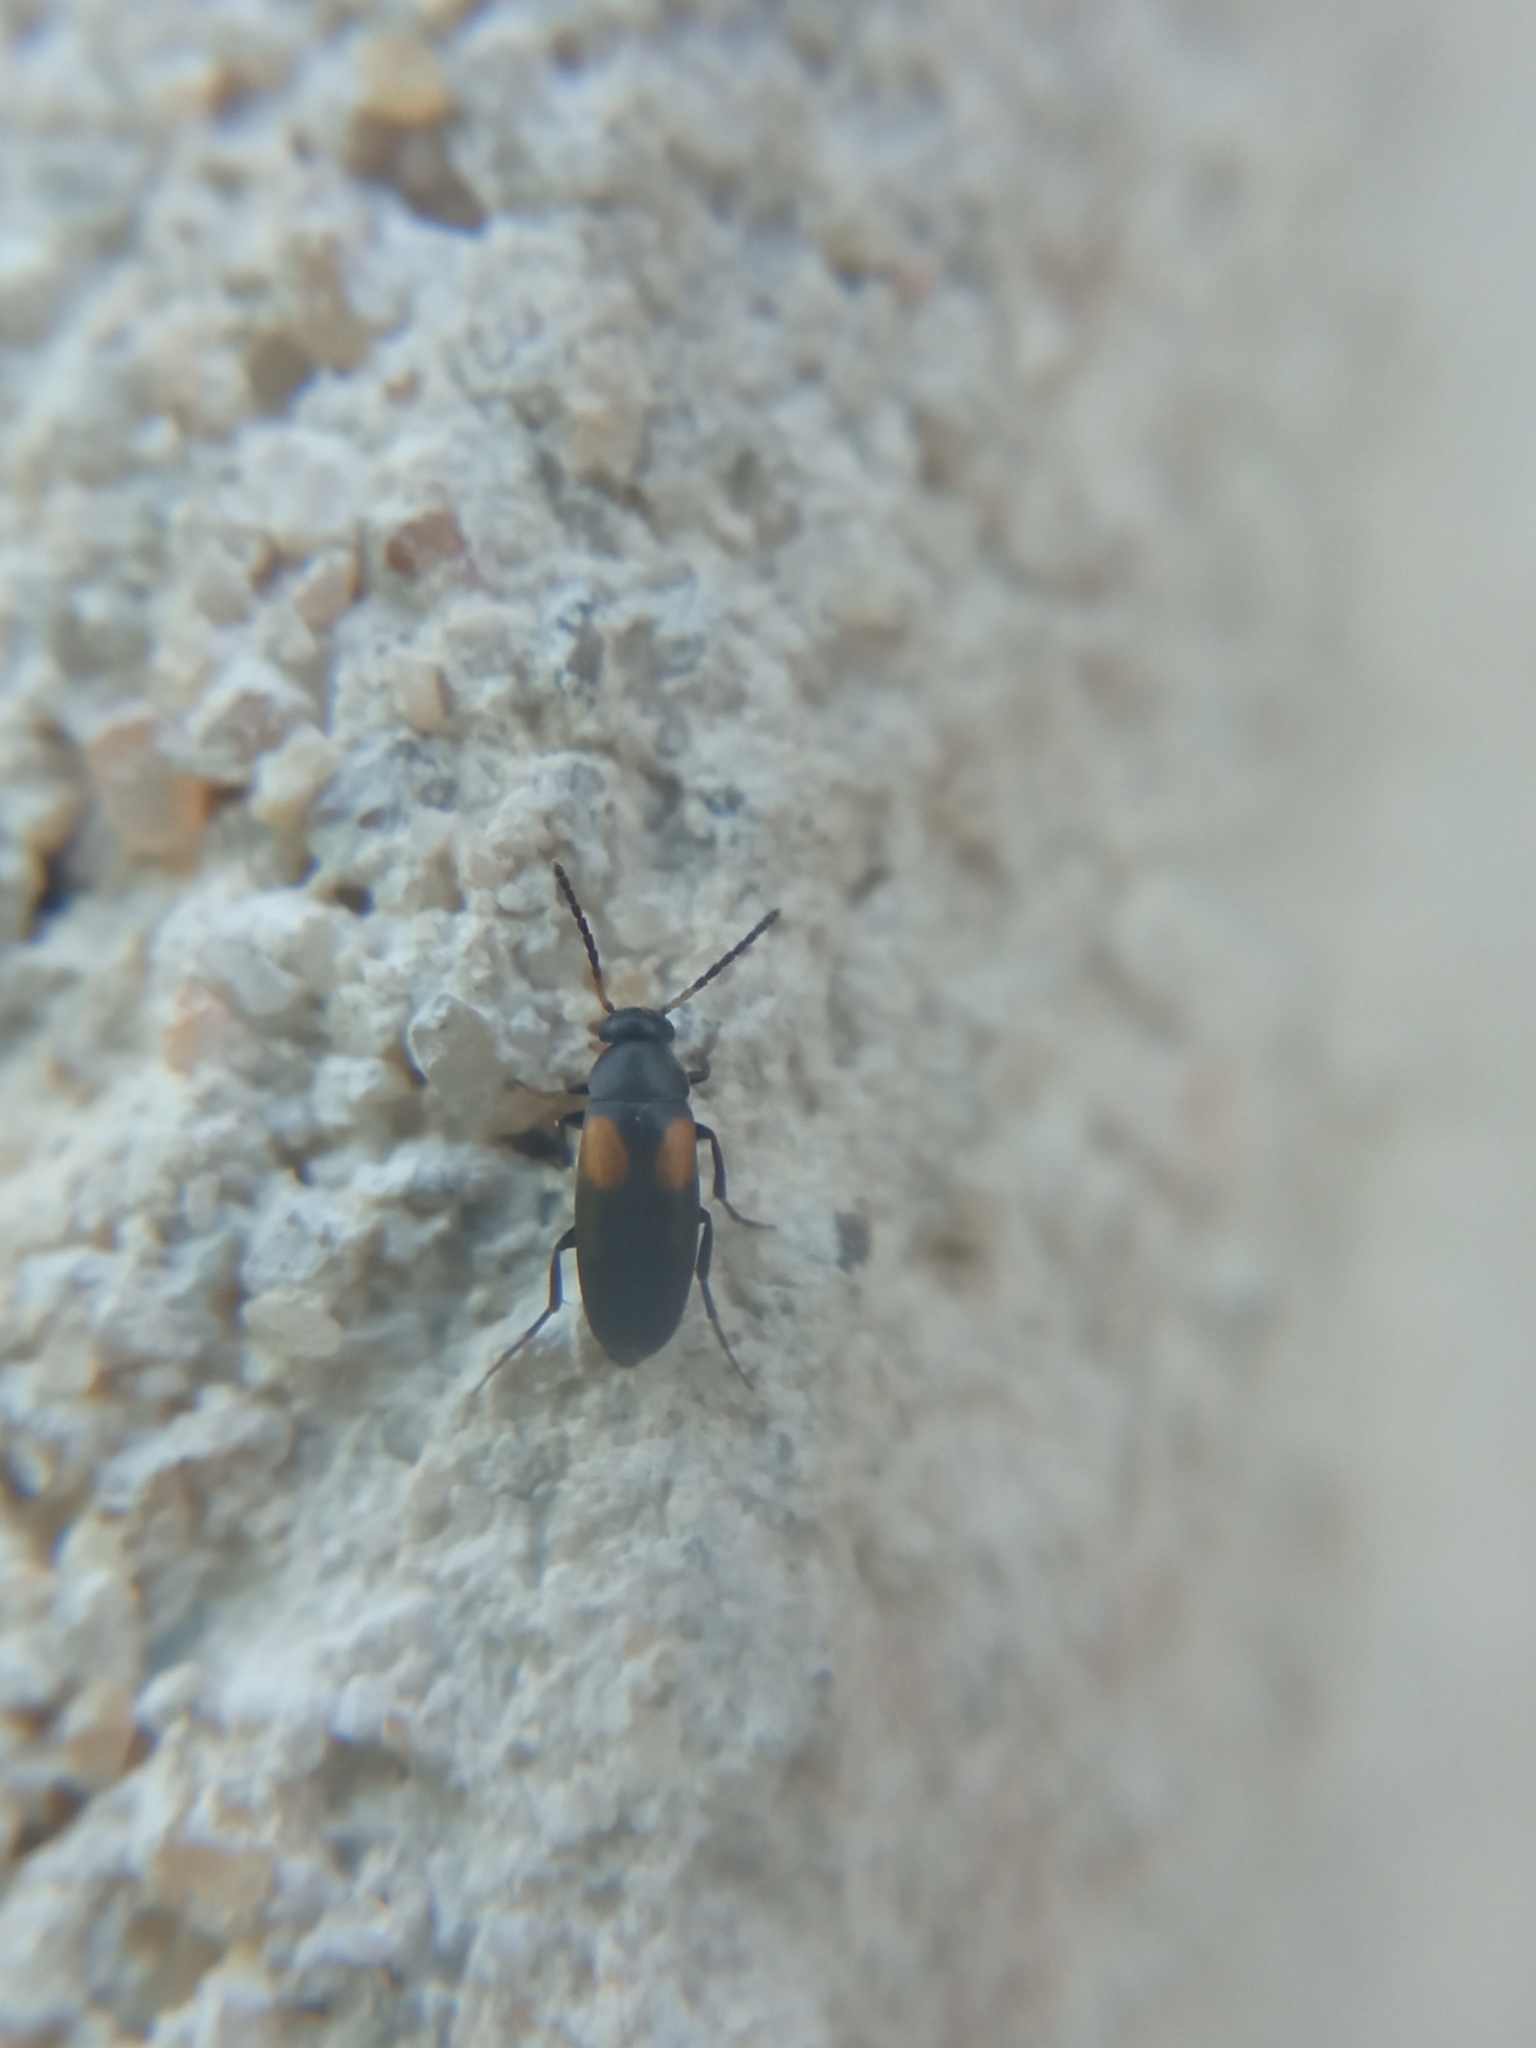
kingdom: Animalia
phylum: Arthropoda
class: Insecta
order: Coleoptera
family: Scraptiidae
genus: Anaspis
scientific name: Anaspis fasciata
